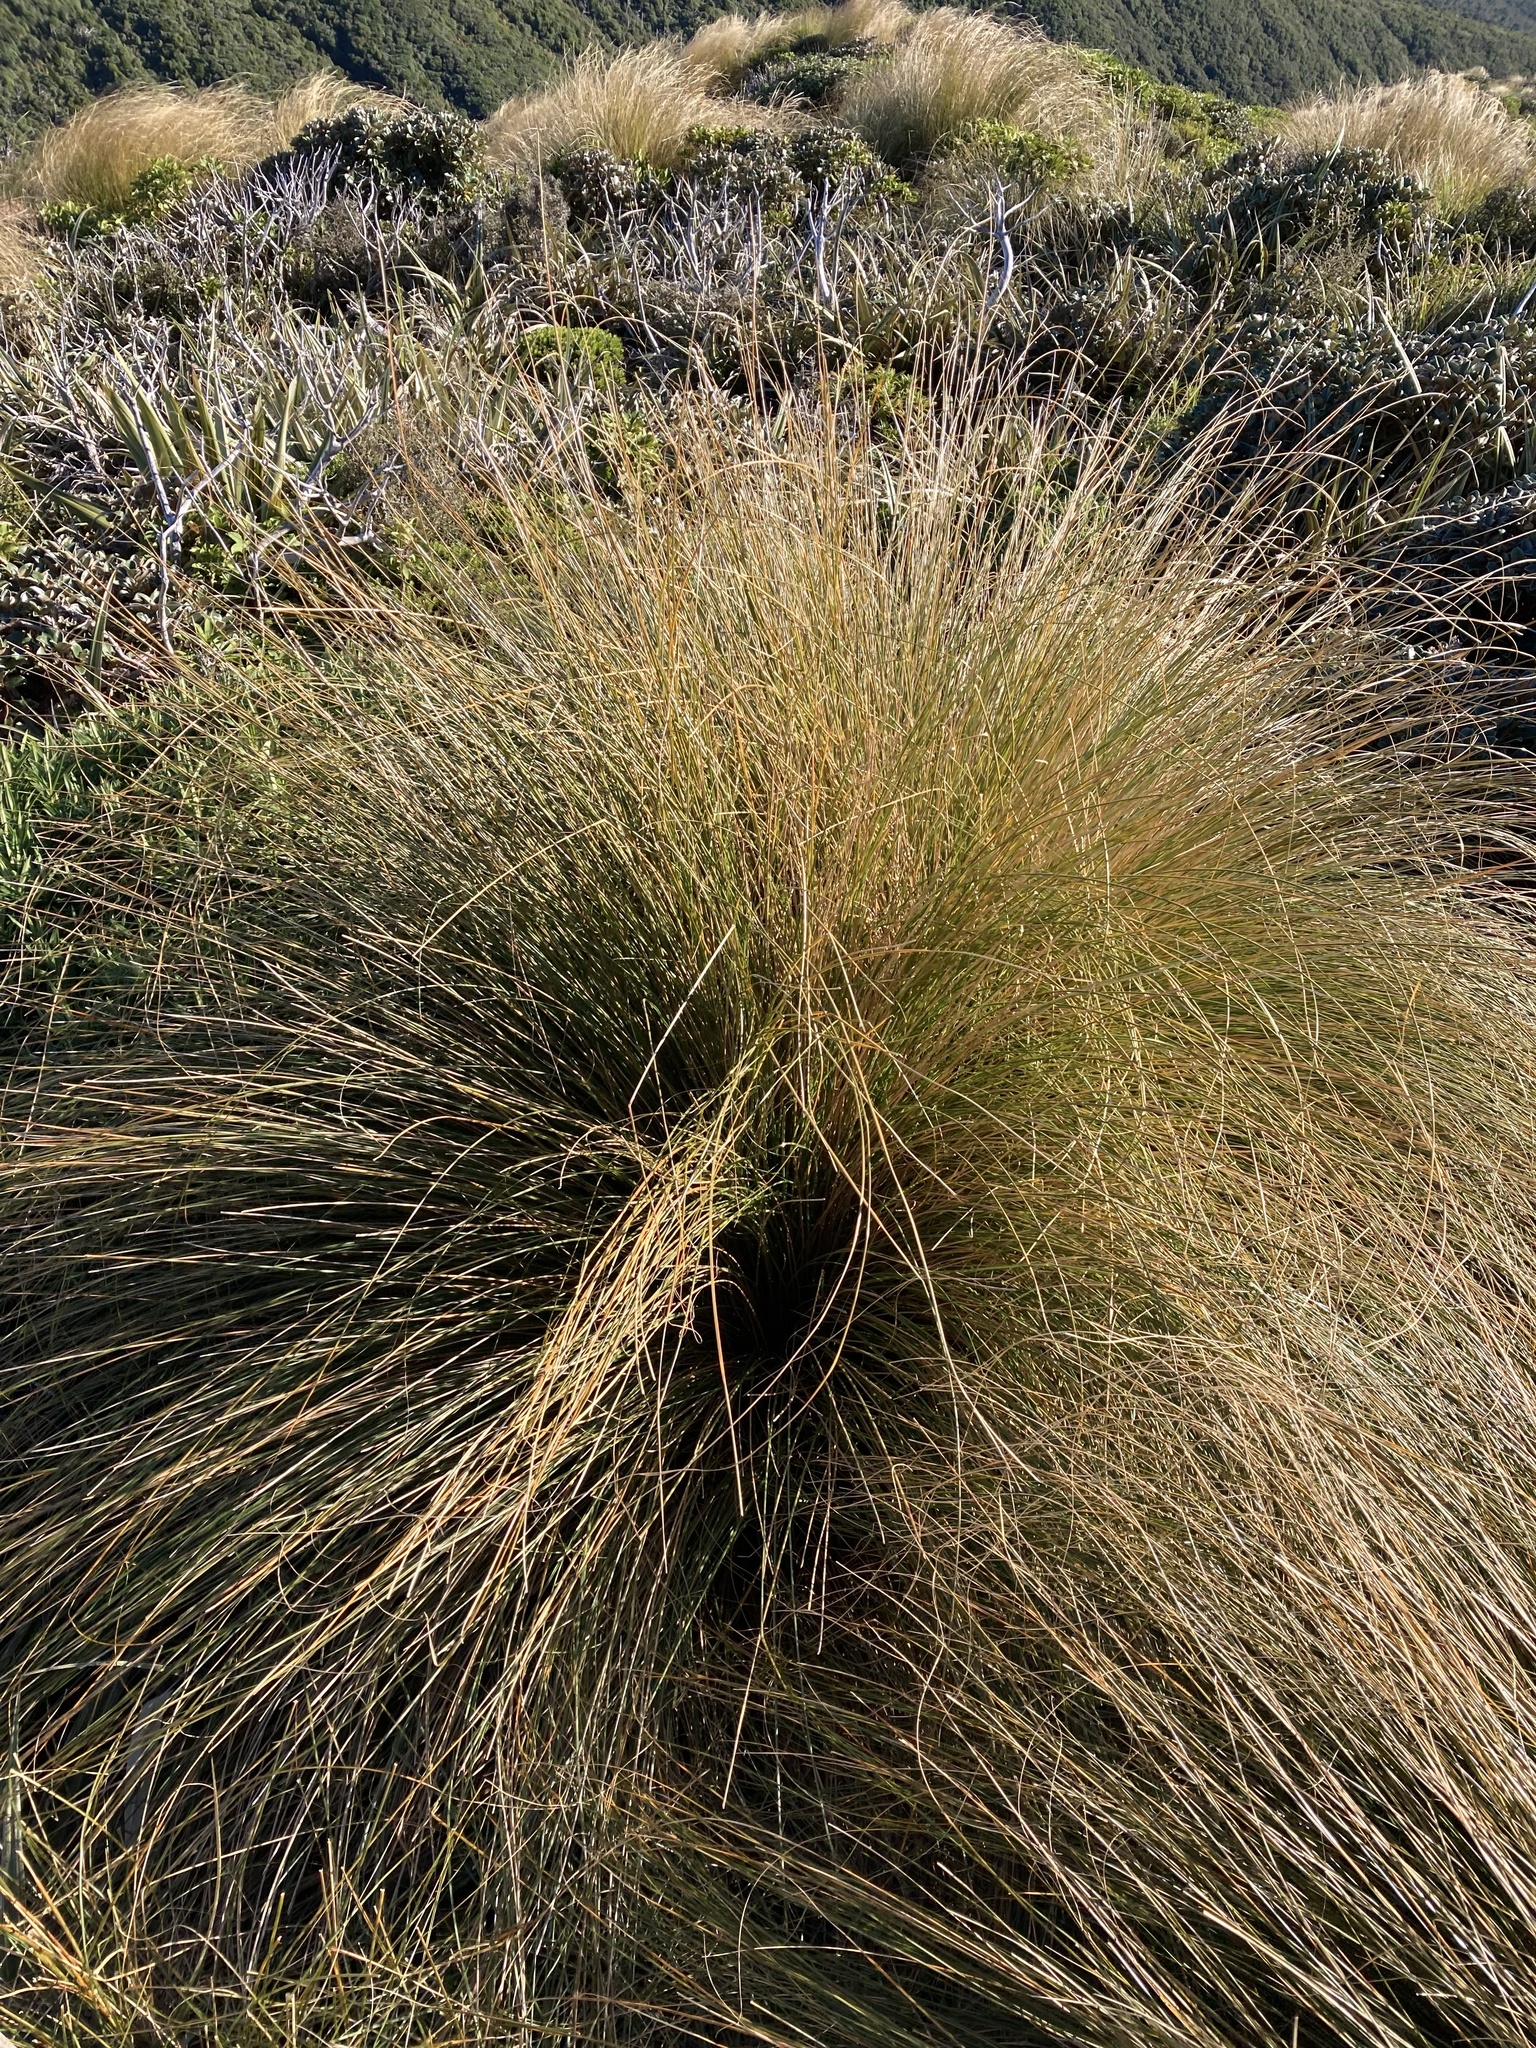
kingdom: Plantae
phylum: Tracheophyta
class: Liliopsida
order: Poales
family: Poaceae
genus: Chionochloa
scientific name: Chionochloa rubra
